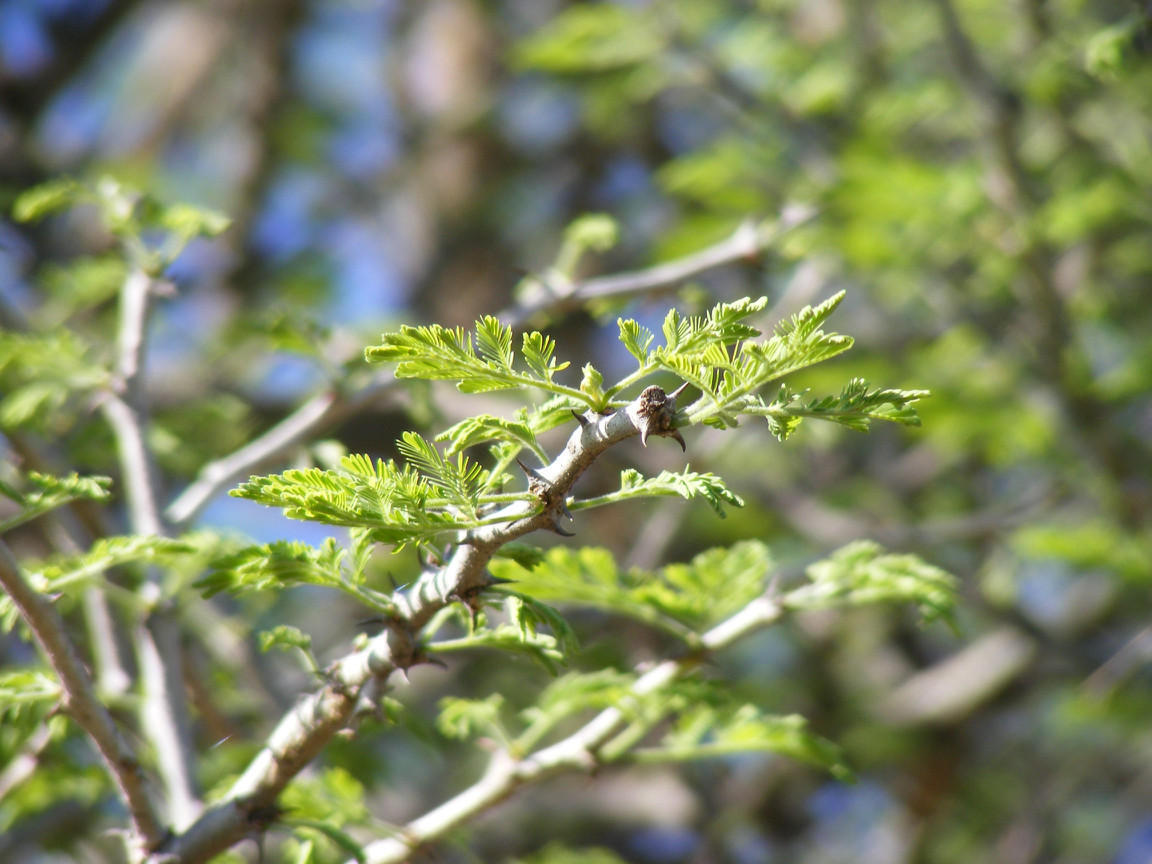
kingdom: Plantae
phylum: Tracheophyta
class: Magnoliopsida
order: Fabales
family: Fabaceae
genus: Senegalia
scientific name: Senegalia senegal
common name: Senegal-gum
